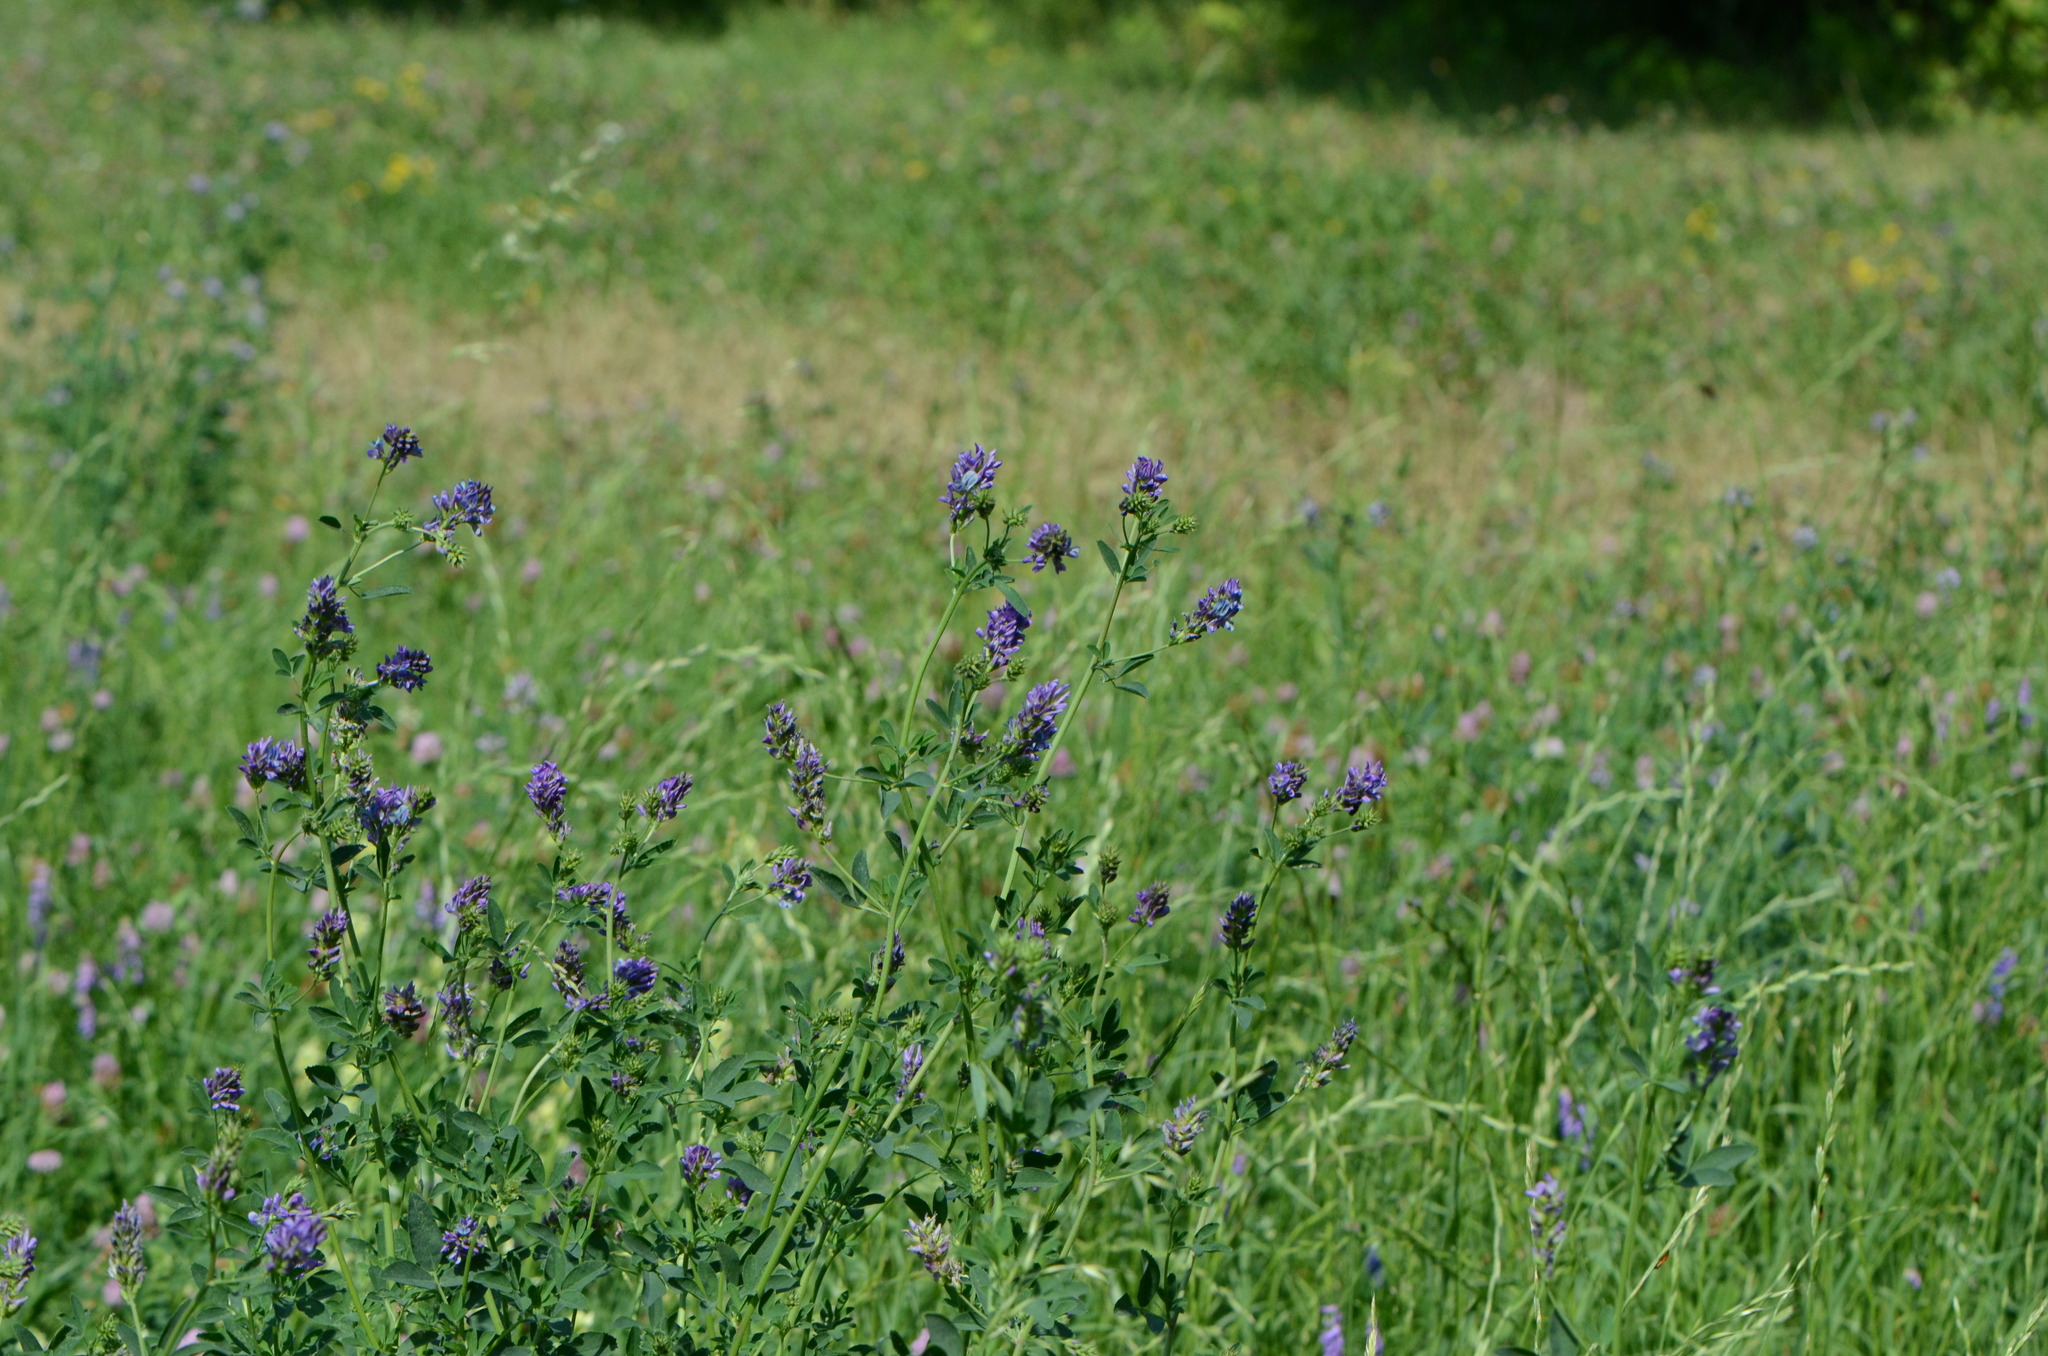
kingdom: Plantae
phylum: Tracheophyta
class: Magnoliopsida
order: Fabales
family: Fabaceae
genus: Medicago
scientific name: Medicago sativa
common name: Alfalfa
